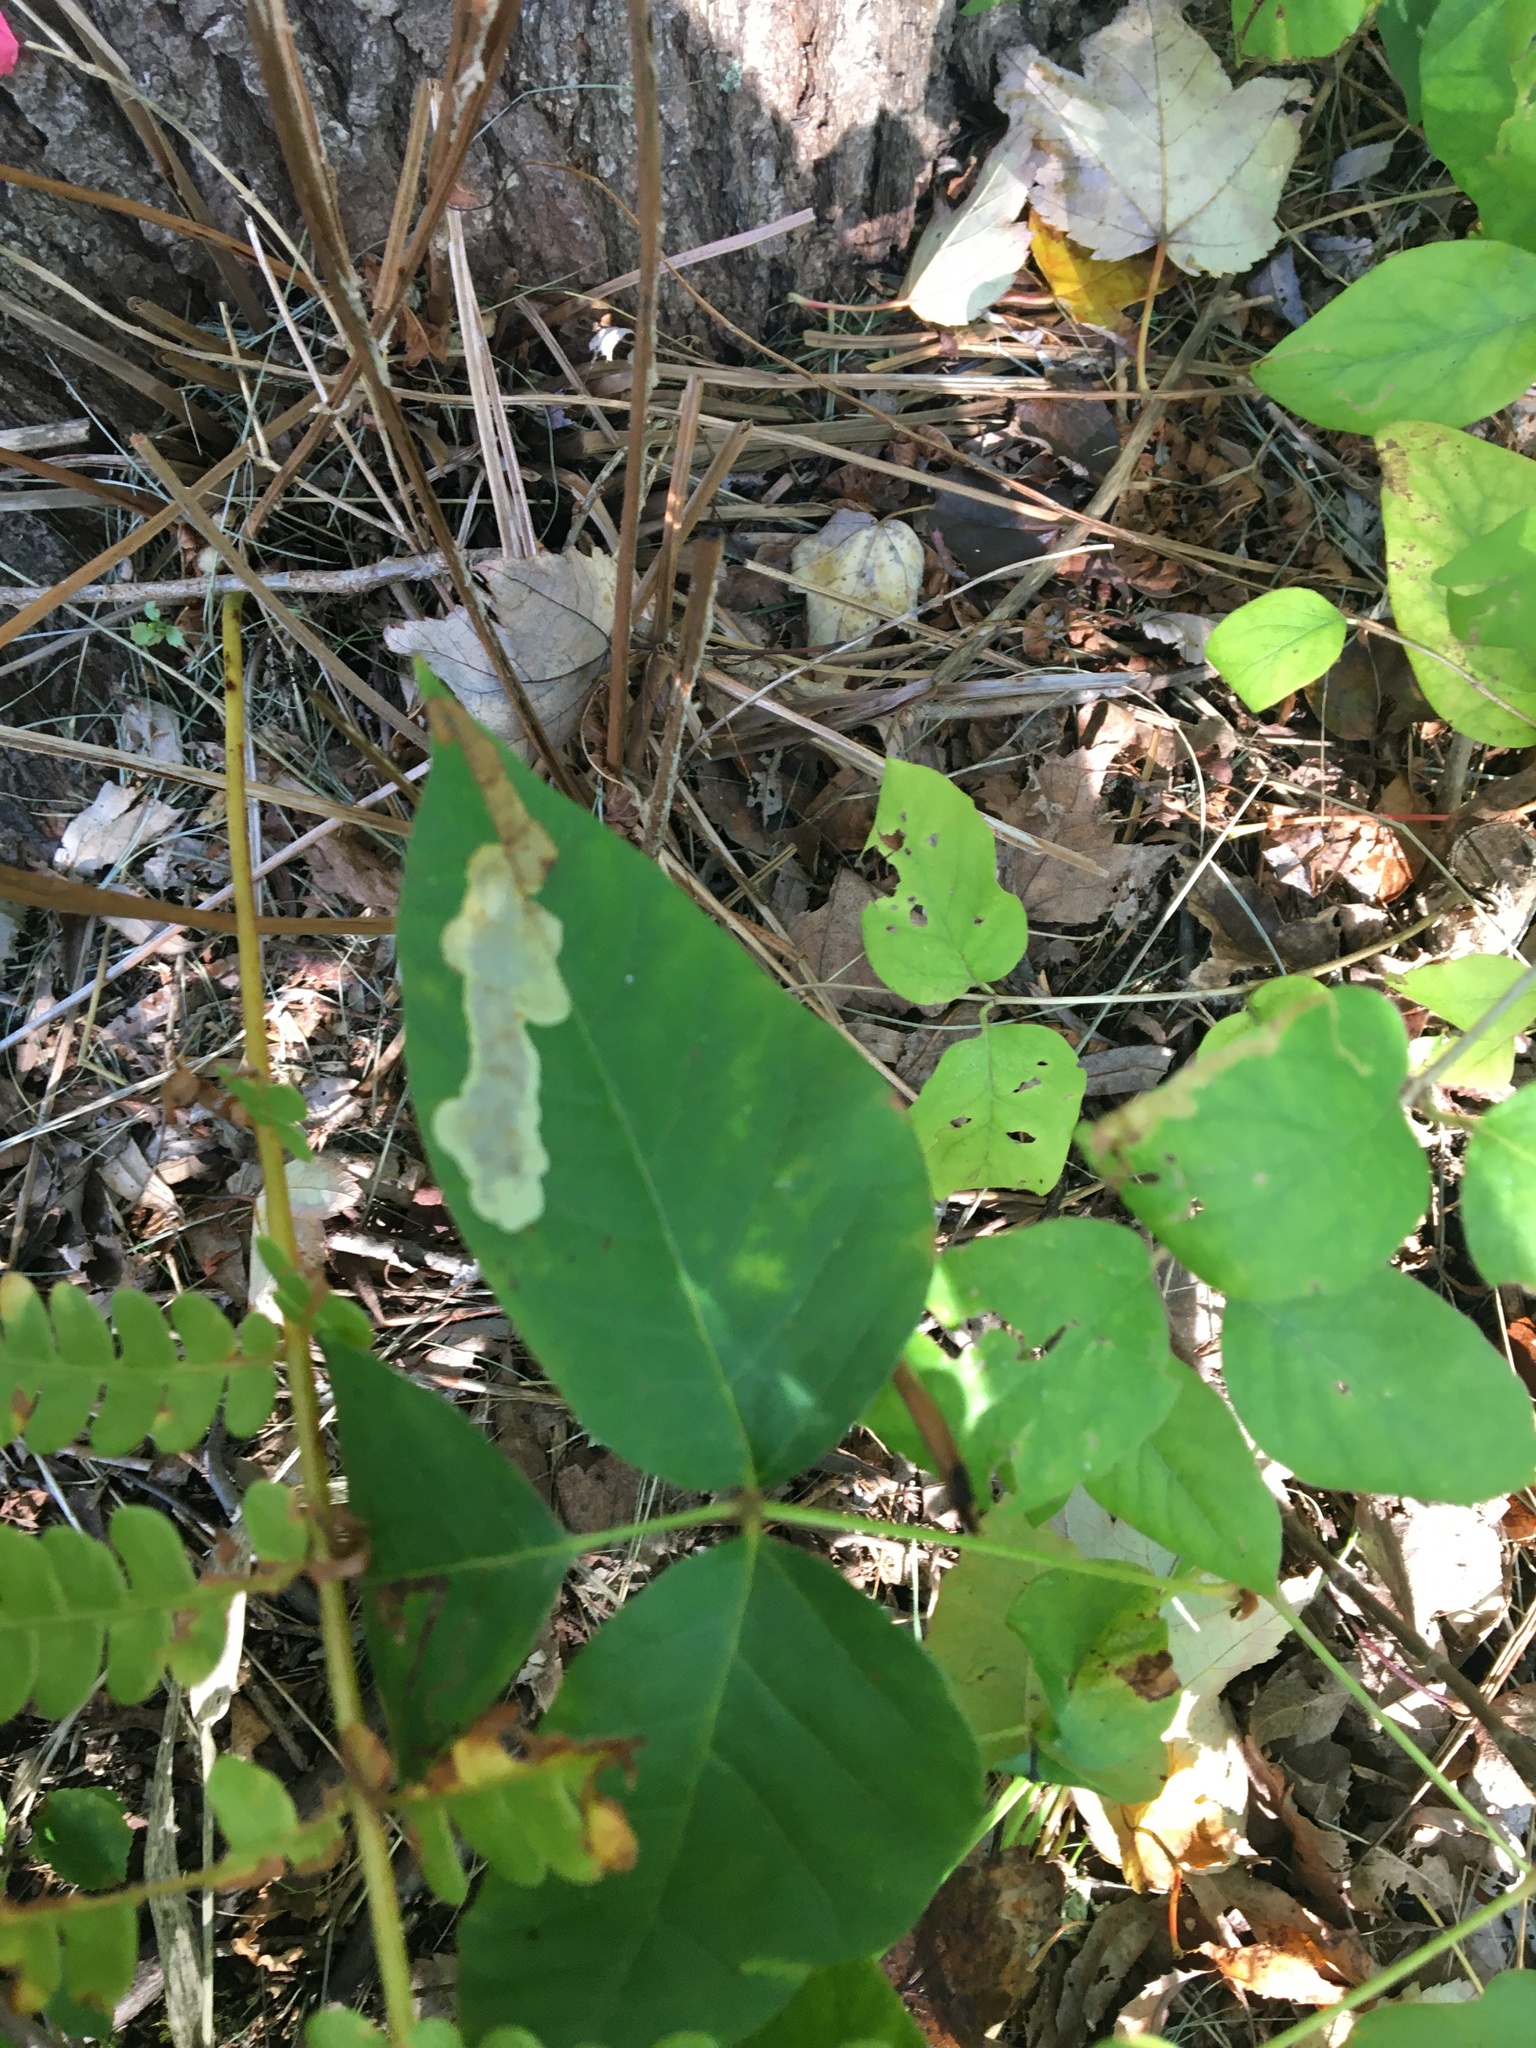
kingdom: Animalia
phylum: Arthropoda
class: Insecta
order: Lepidoptera
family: Gracillariidae
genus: Cameraria
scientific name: Cameraria guttifinitella
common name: Poison ivy leaf-miner moth
